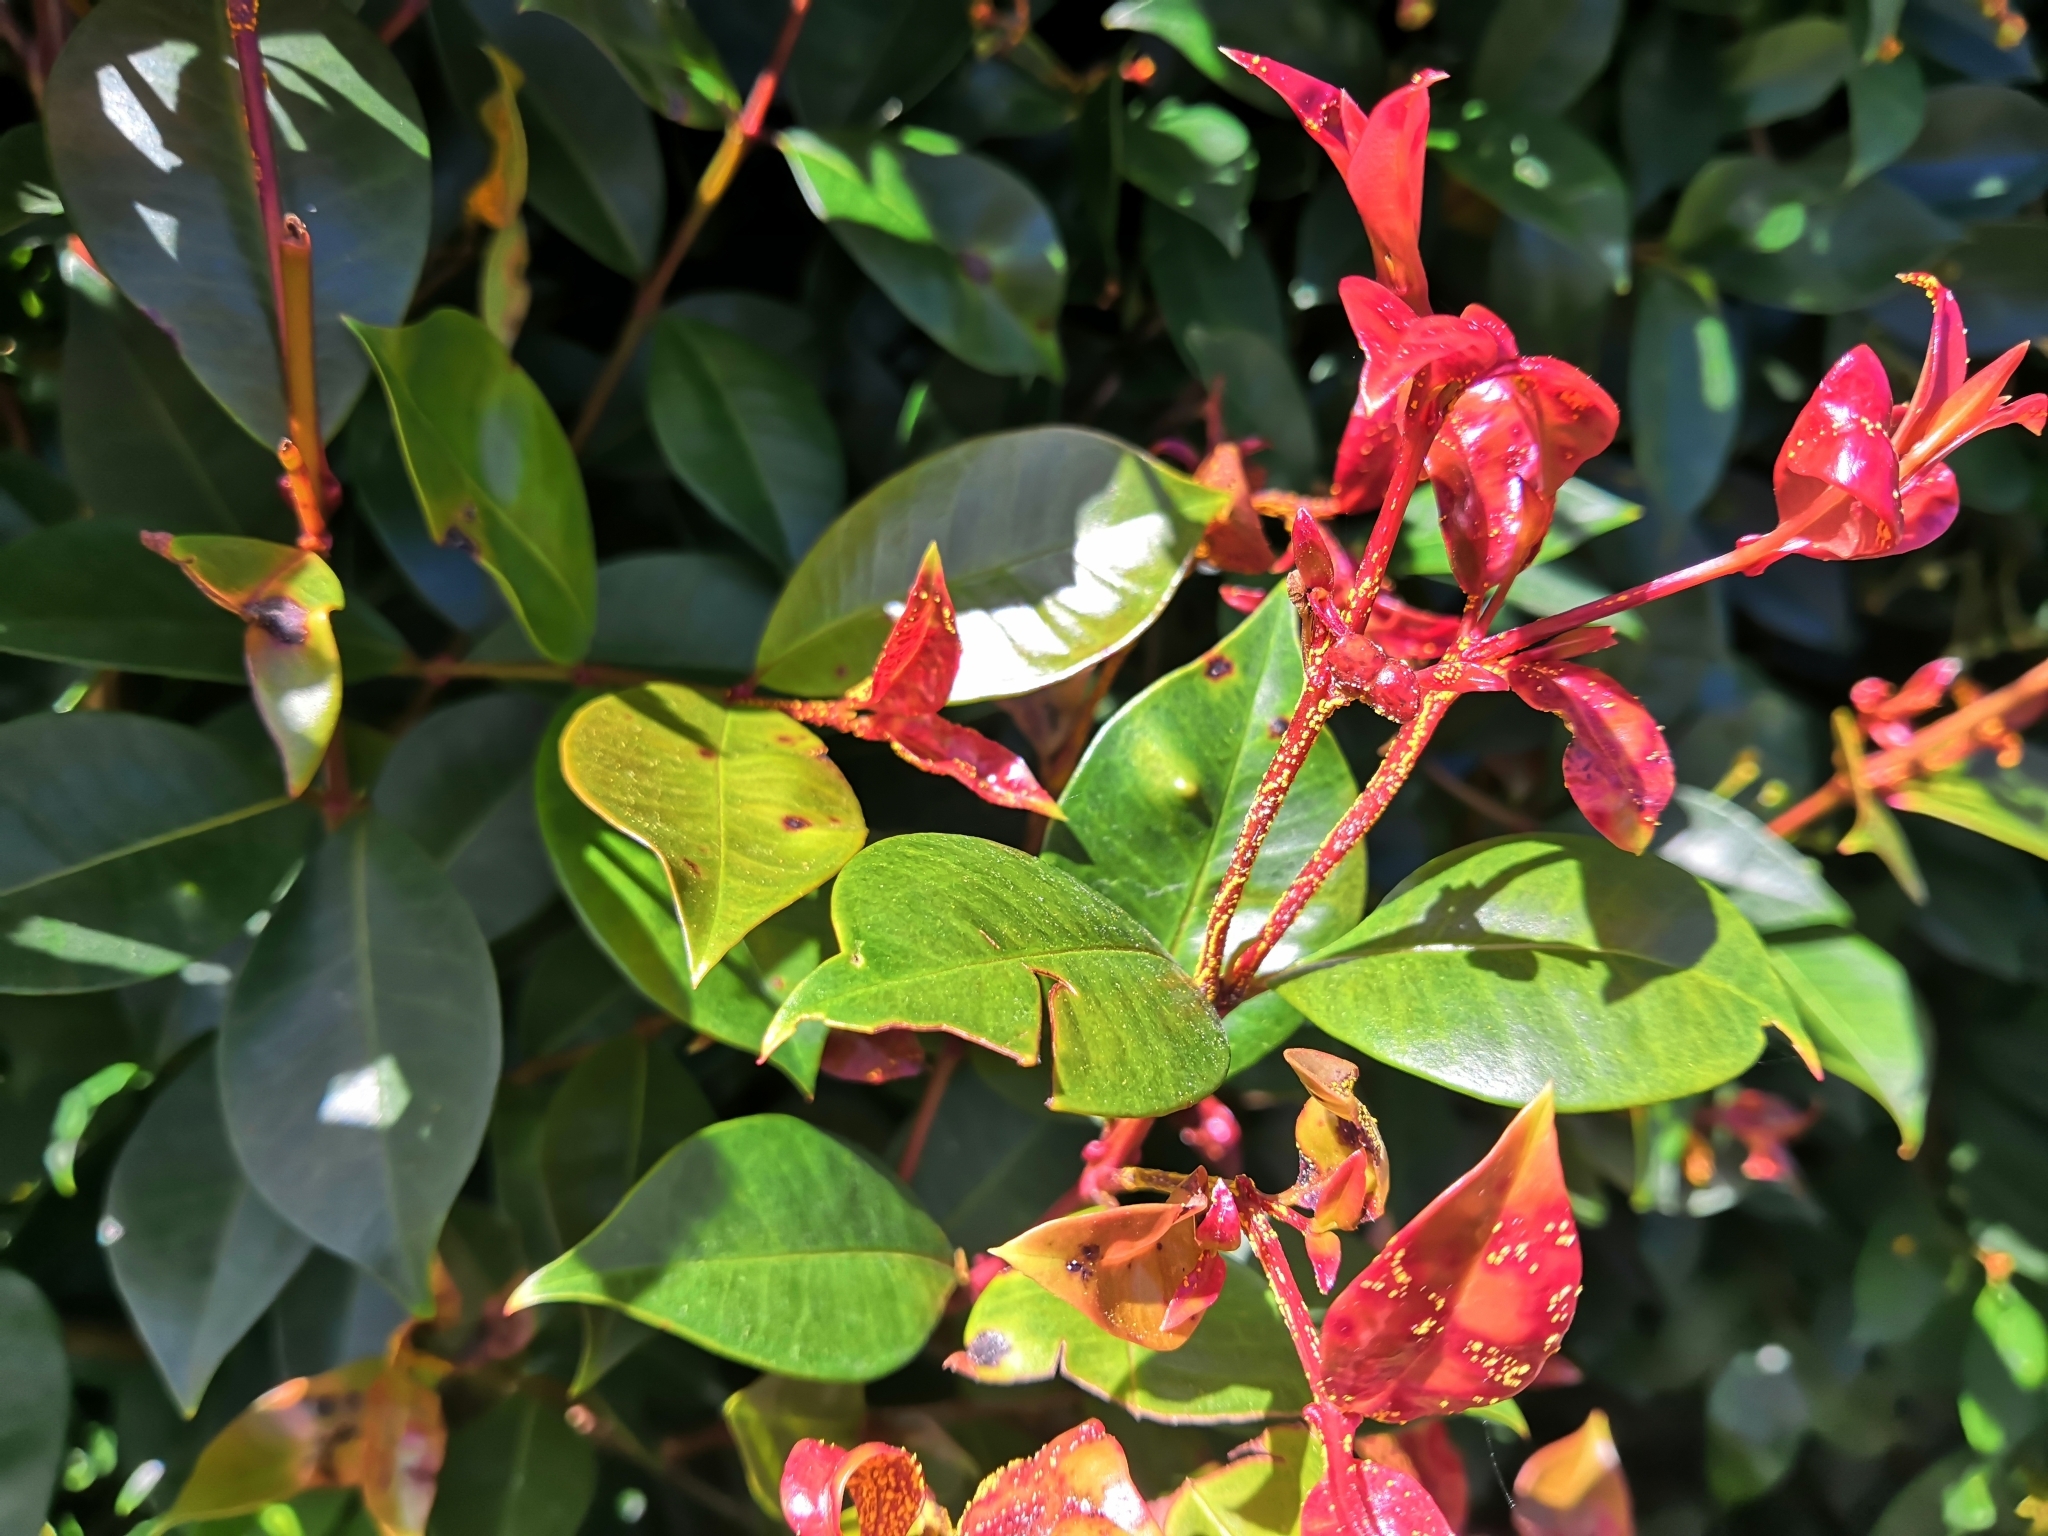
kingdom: Fungi
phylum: Basidiomycota
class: Pucciniomycetes
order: Pucciniales
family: Sphaerophragmiaceae
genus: Austropuccinia
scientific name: Austropuccinia psidii
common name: Myrtle rust
